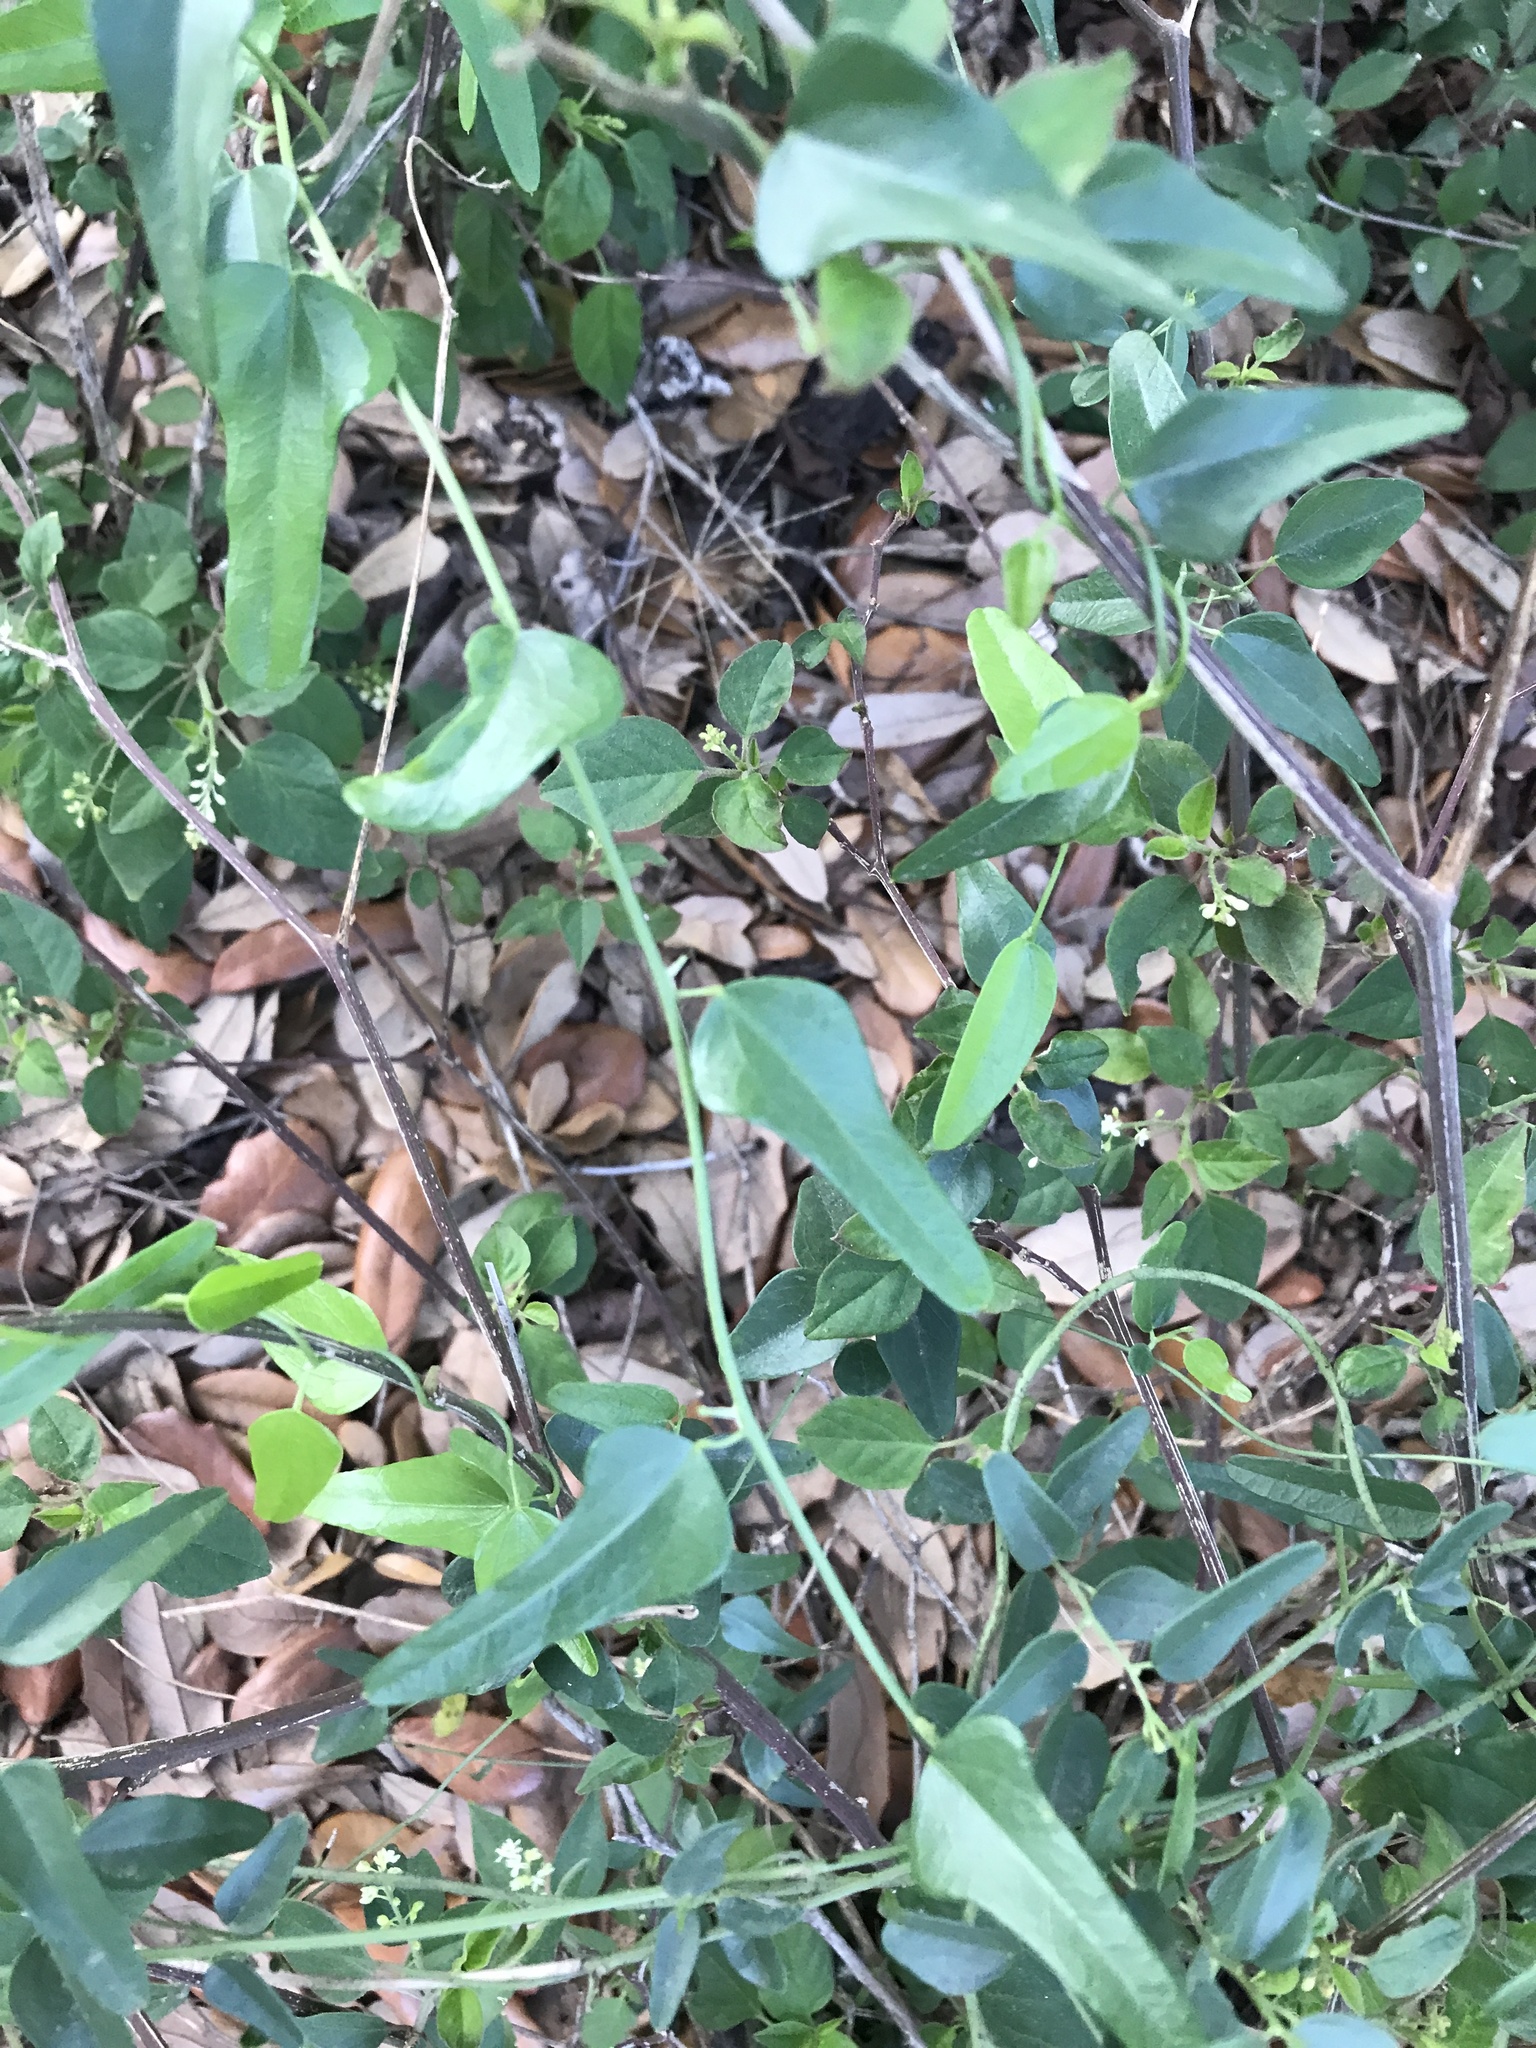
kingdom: Plantae
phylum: Tracheophyta
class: Magnoliopsida
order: Ranunculales
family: Menispermaceae
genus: Cocculus
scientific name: Cocculus diversifolius
